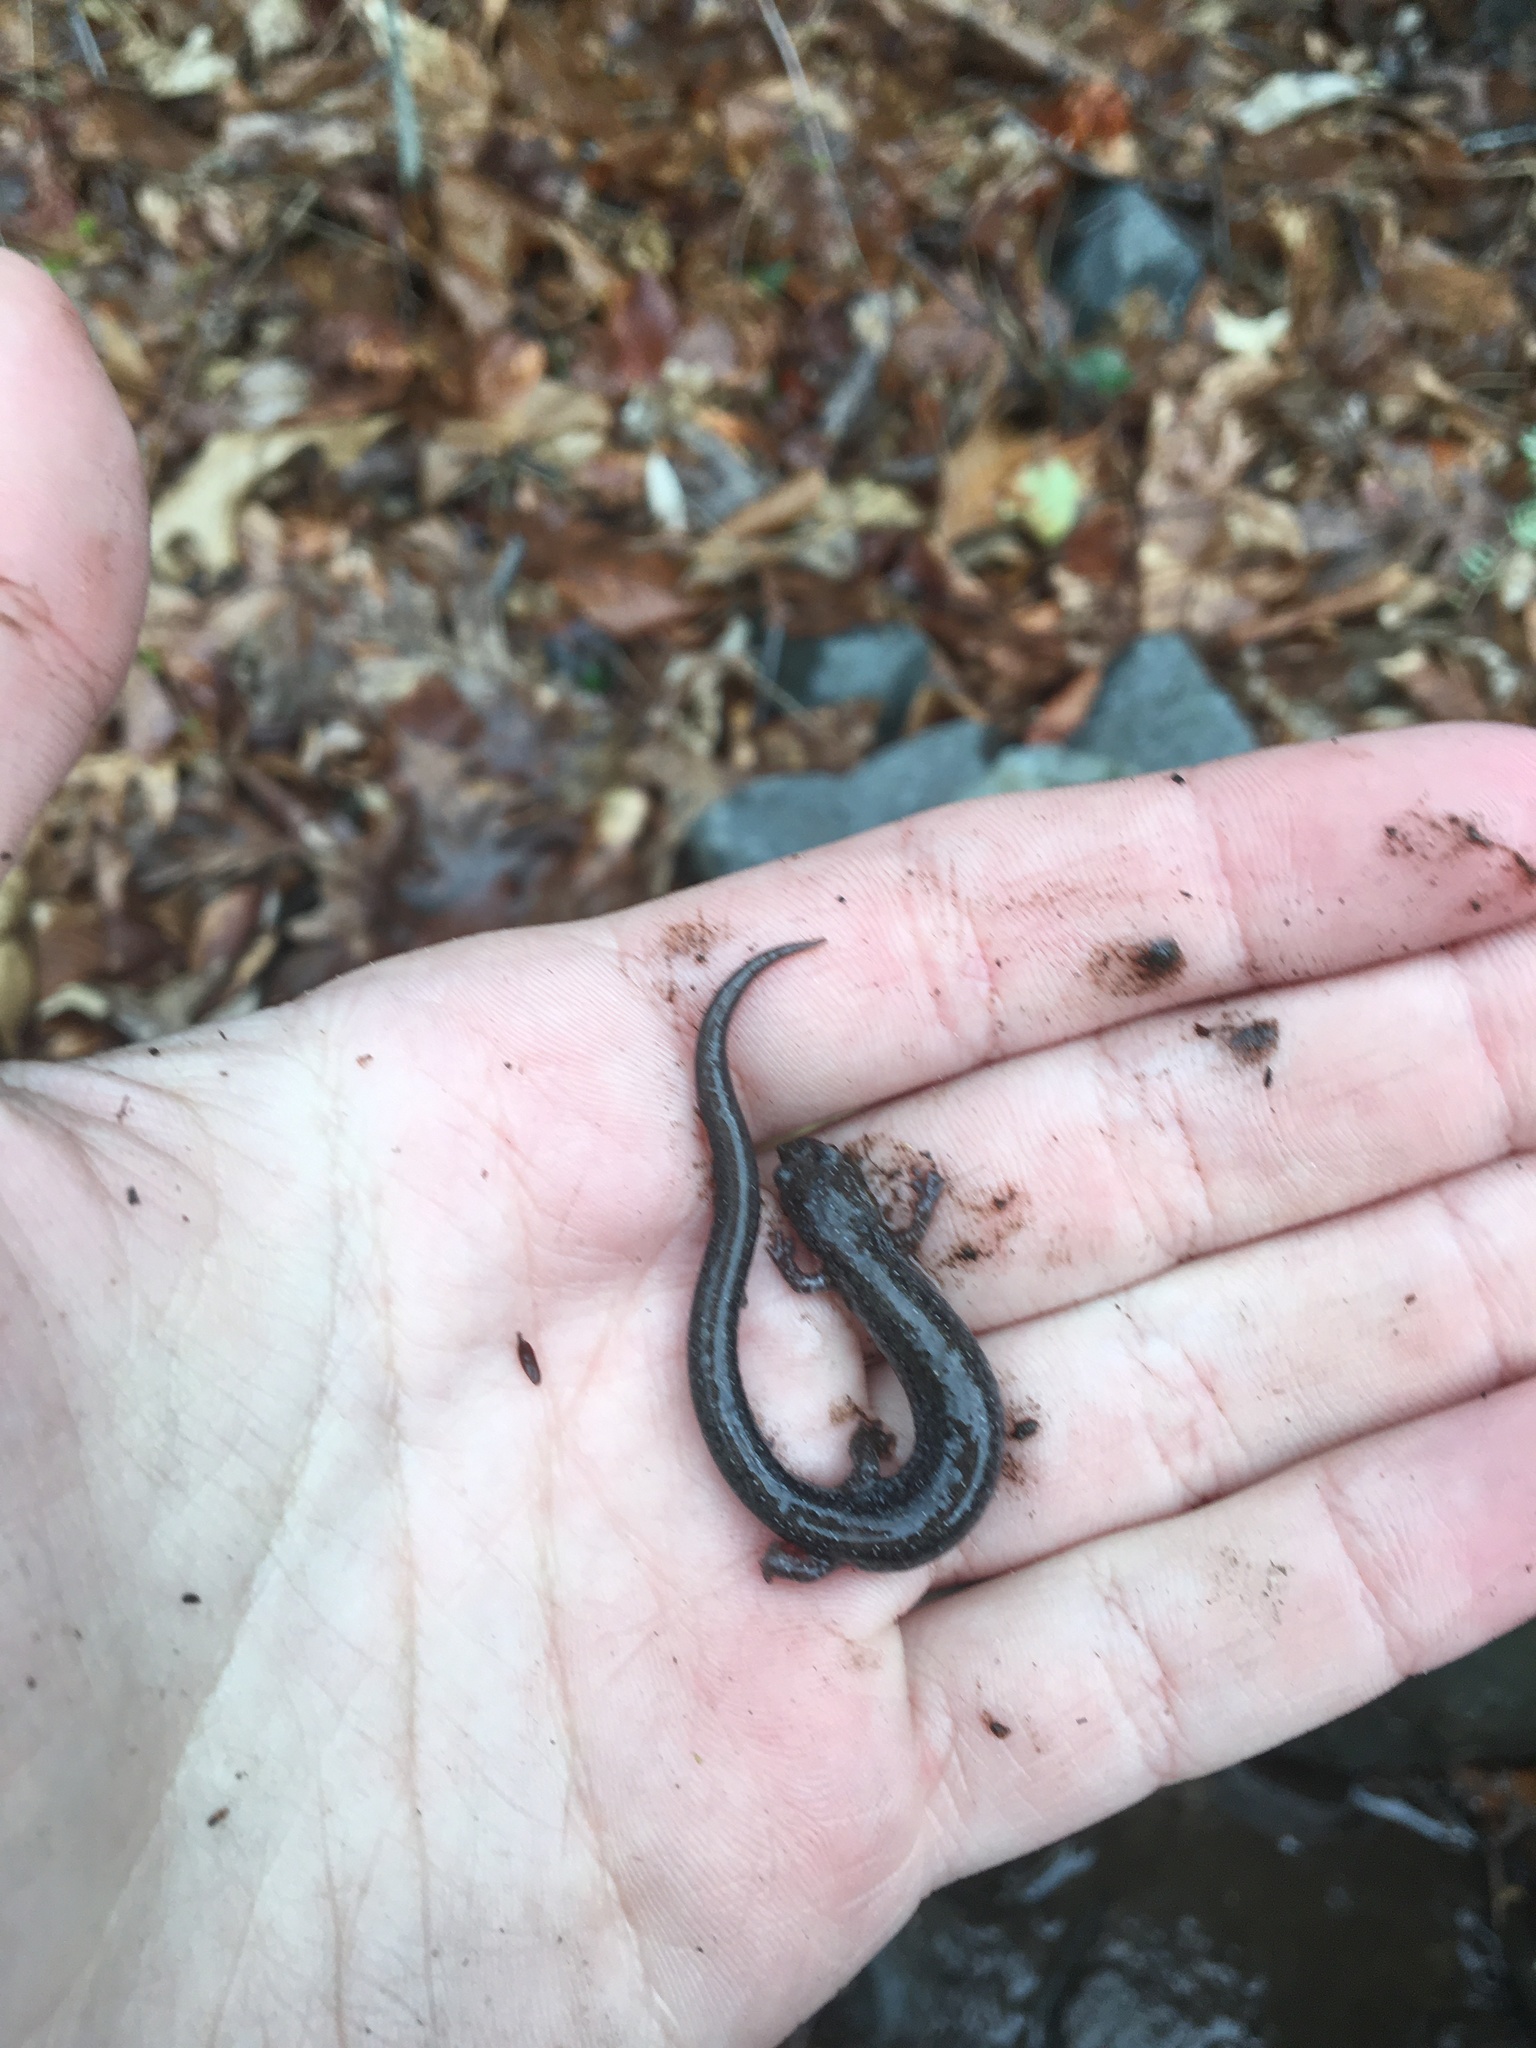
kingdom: Animalia
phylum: Chordata
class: Amphibia
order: Caudata
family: Plethodontidae
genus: Plethodon
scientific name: Plethodon cinereus
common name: Redback salamander
